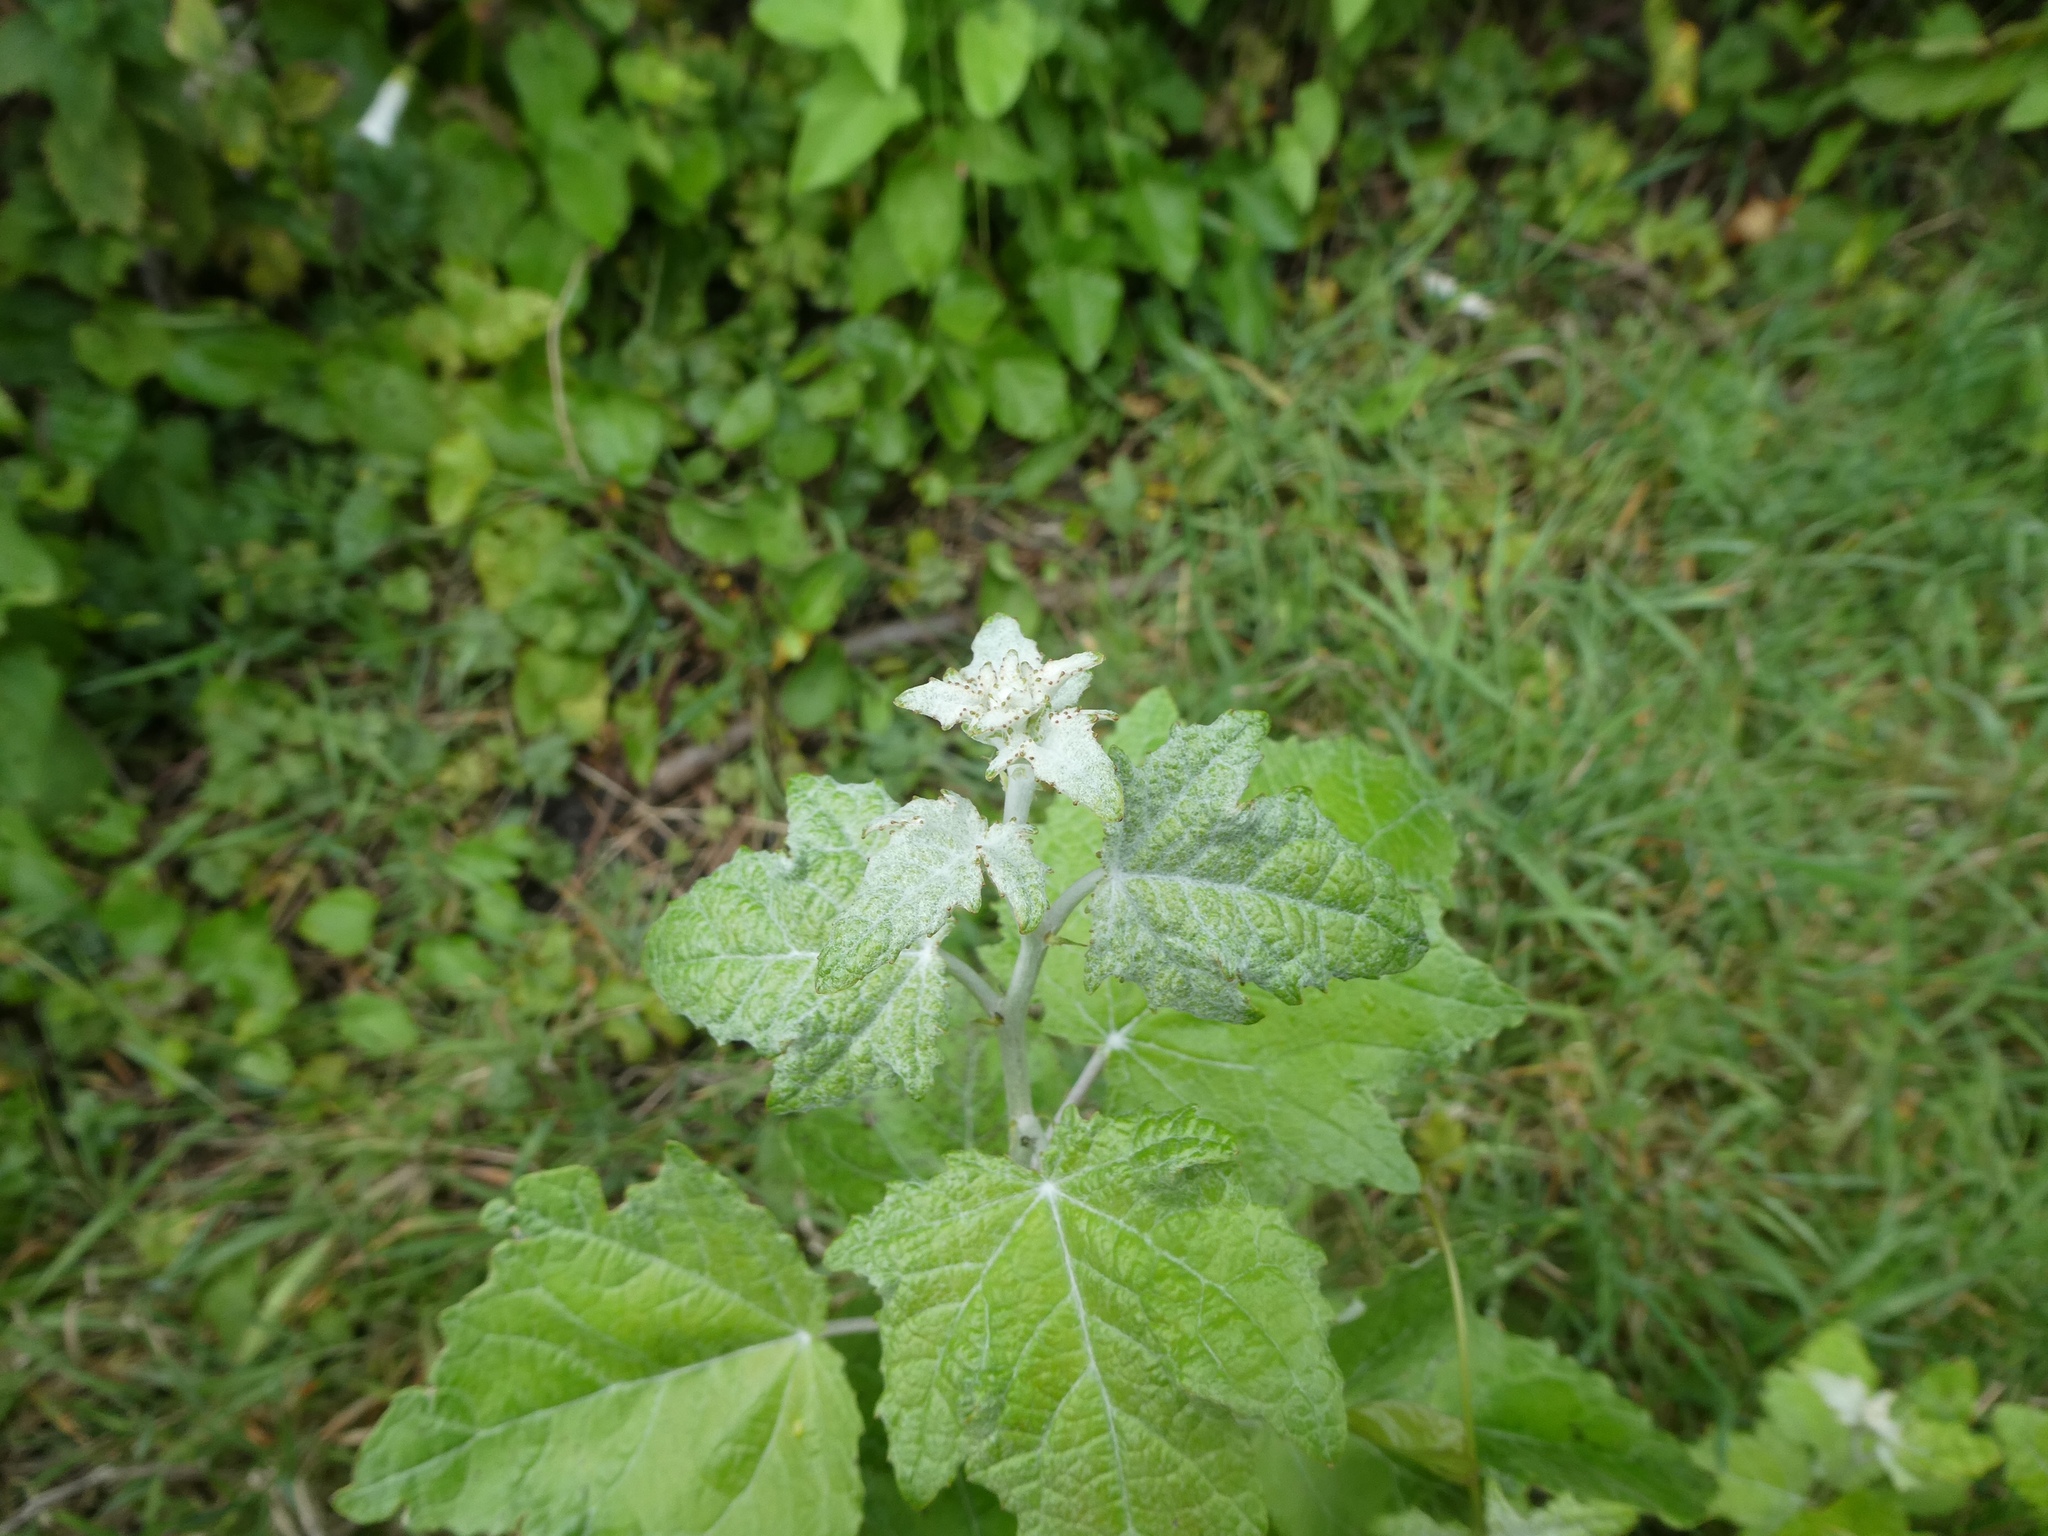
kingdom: Plantae
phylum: Tracheophyta
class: Magnoliopsida
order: Malpighiales
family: Salicaceae
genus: Populus
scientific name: Populus alba
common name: White poplar
